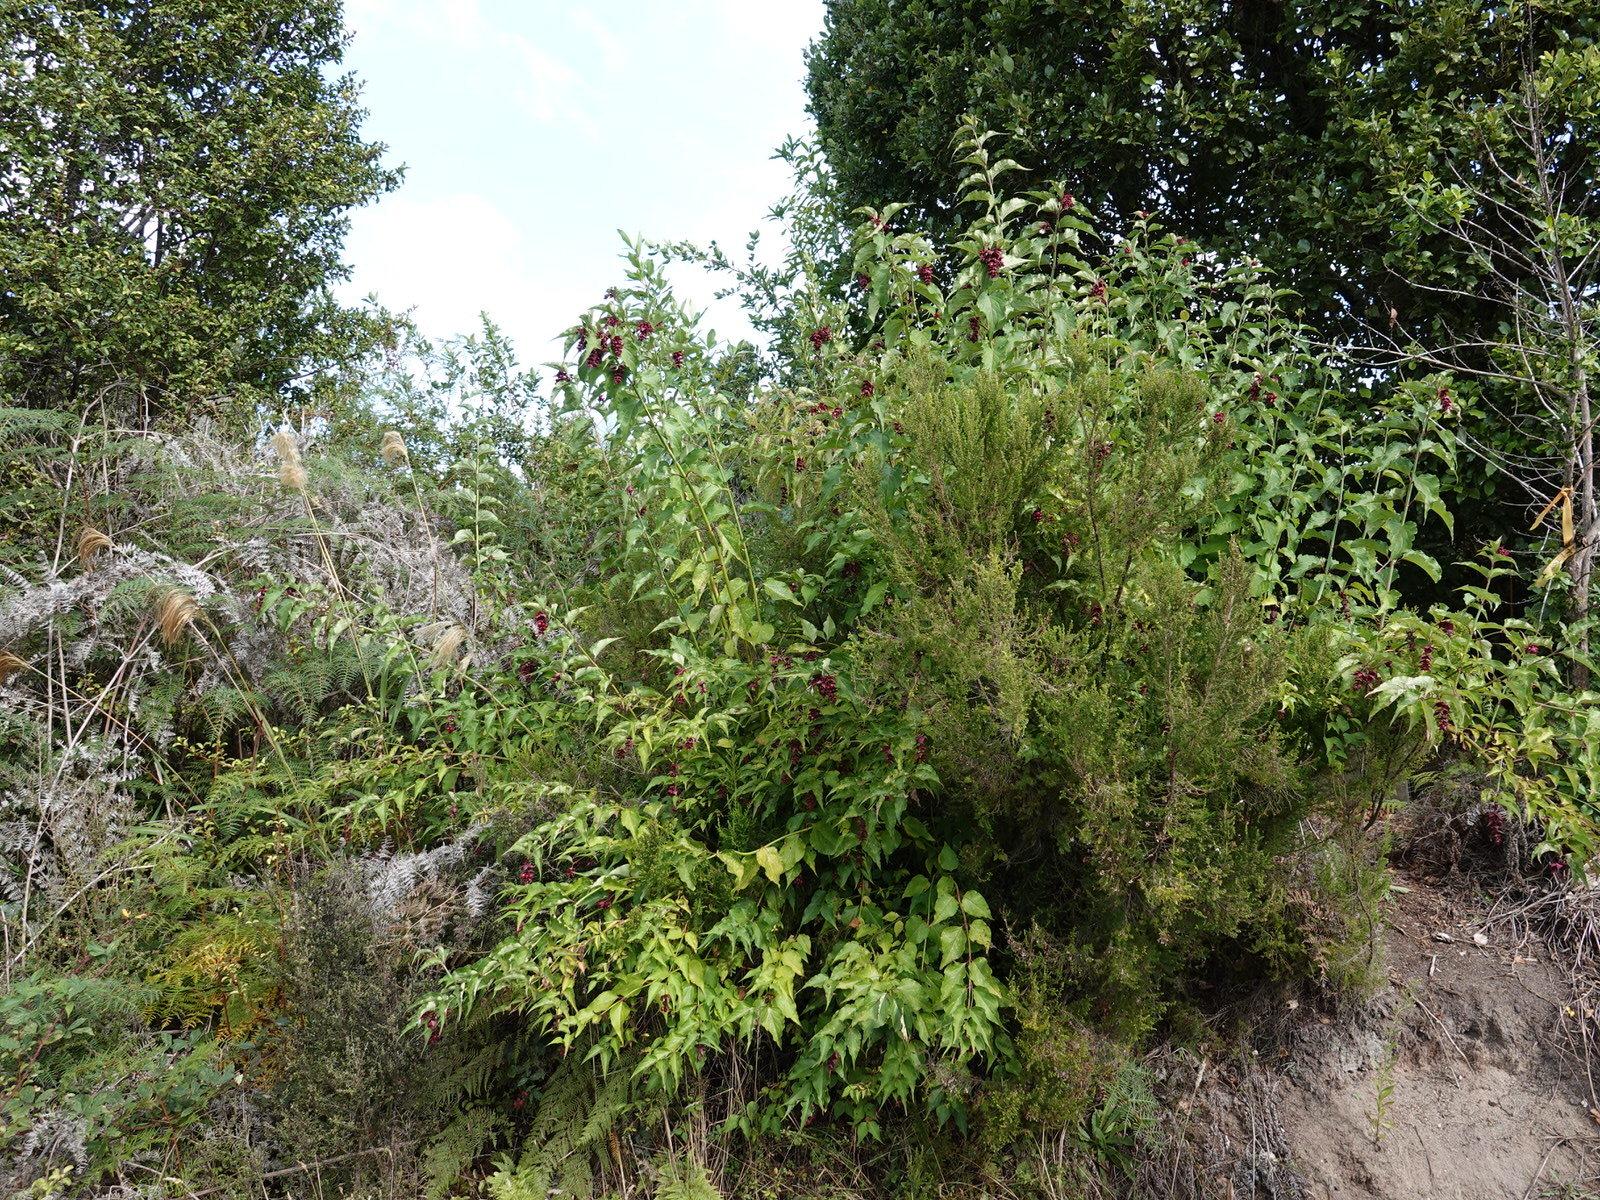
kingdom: Plantae
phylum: Tracheophyta
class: Magnoliopsida
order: Dipsacales
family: Caprifoliaceae
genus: Leycesteria
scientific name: Leycesteria formosa
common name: Himalayan honeysuckle
